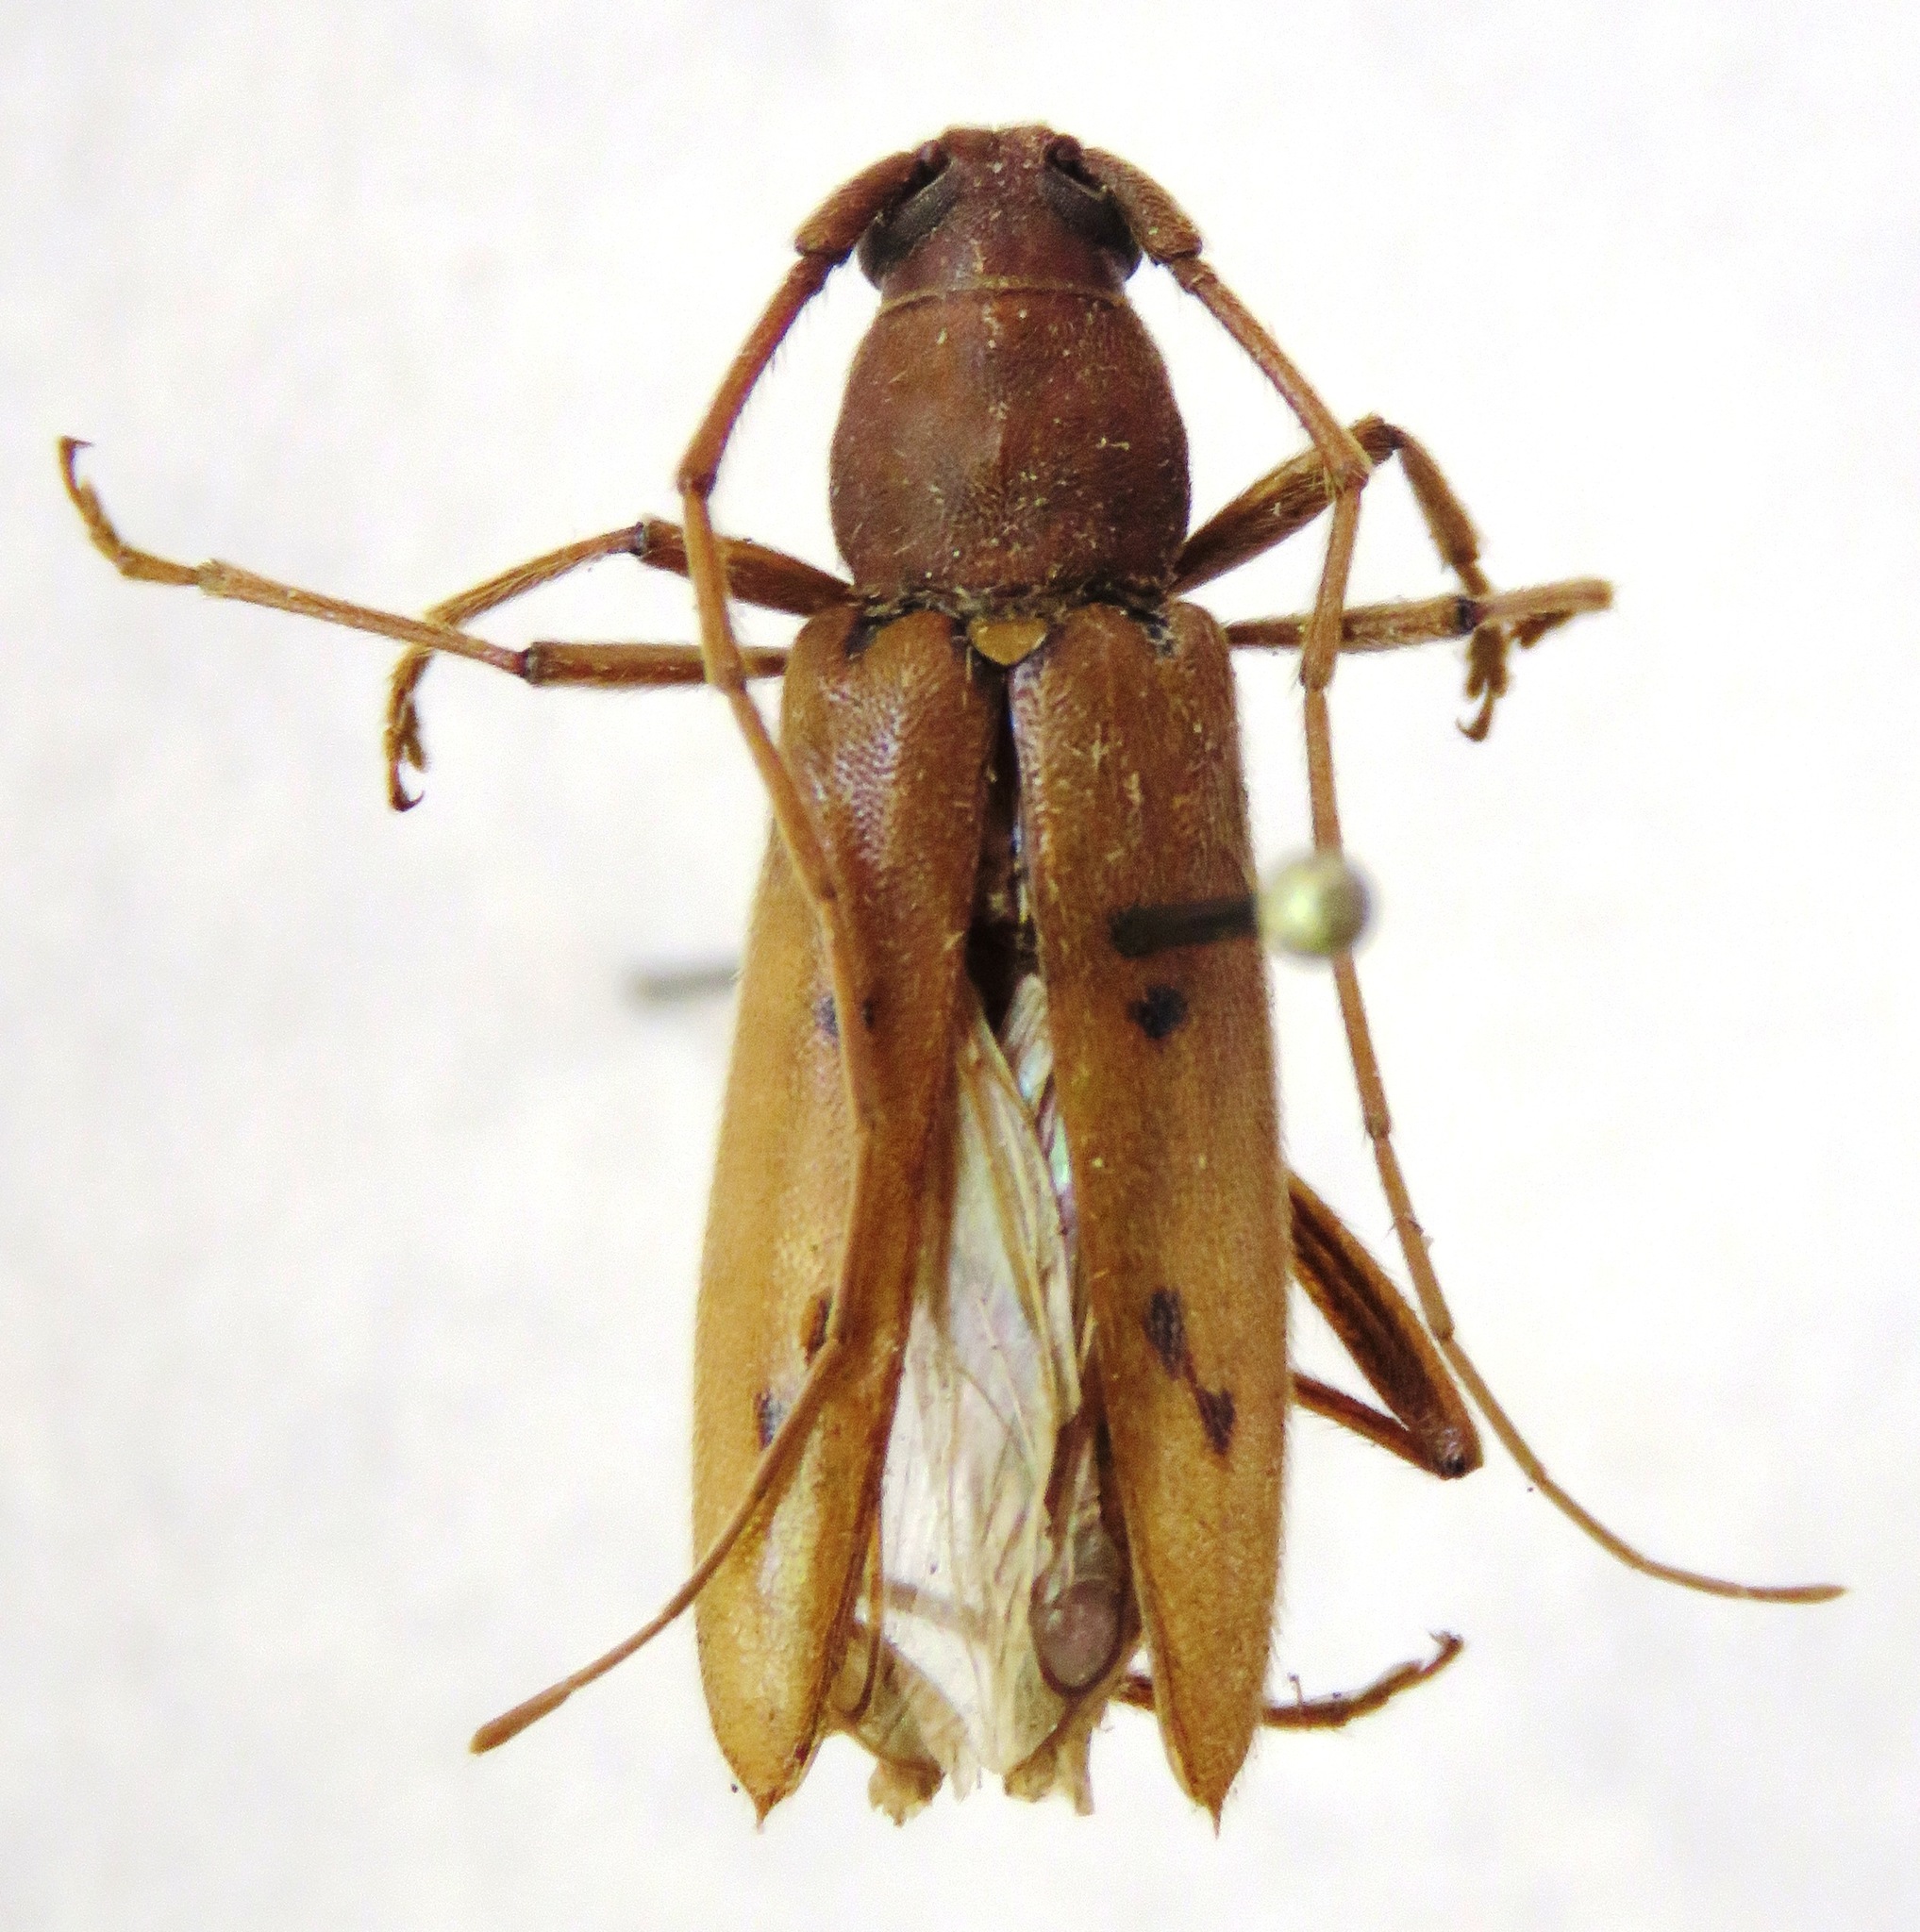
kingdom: Animalia
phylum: Arthropoda
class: Insecta
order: Coleoptera
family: Cerambycidae
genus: Achryson
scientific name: Achryson surinamum
